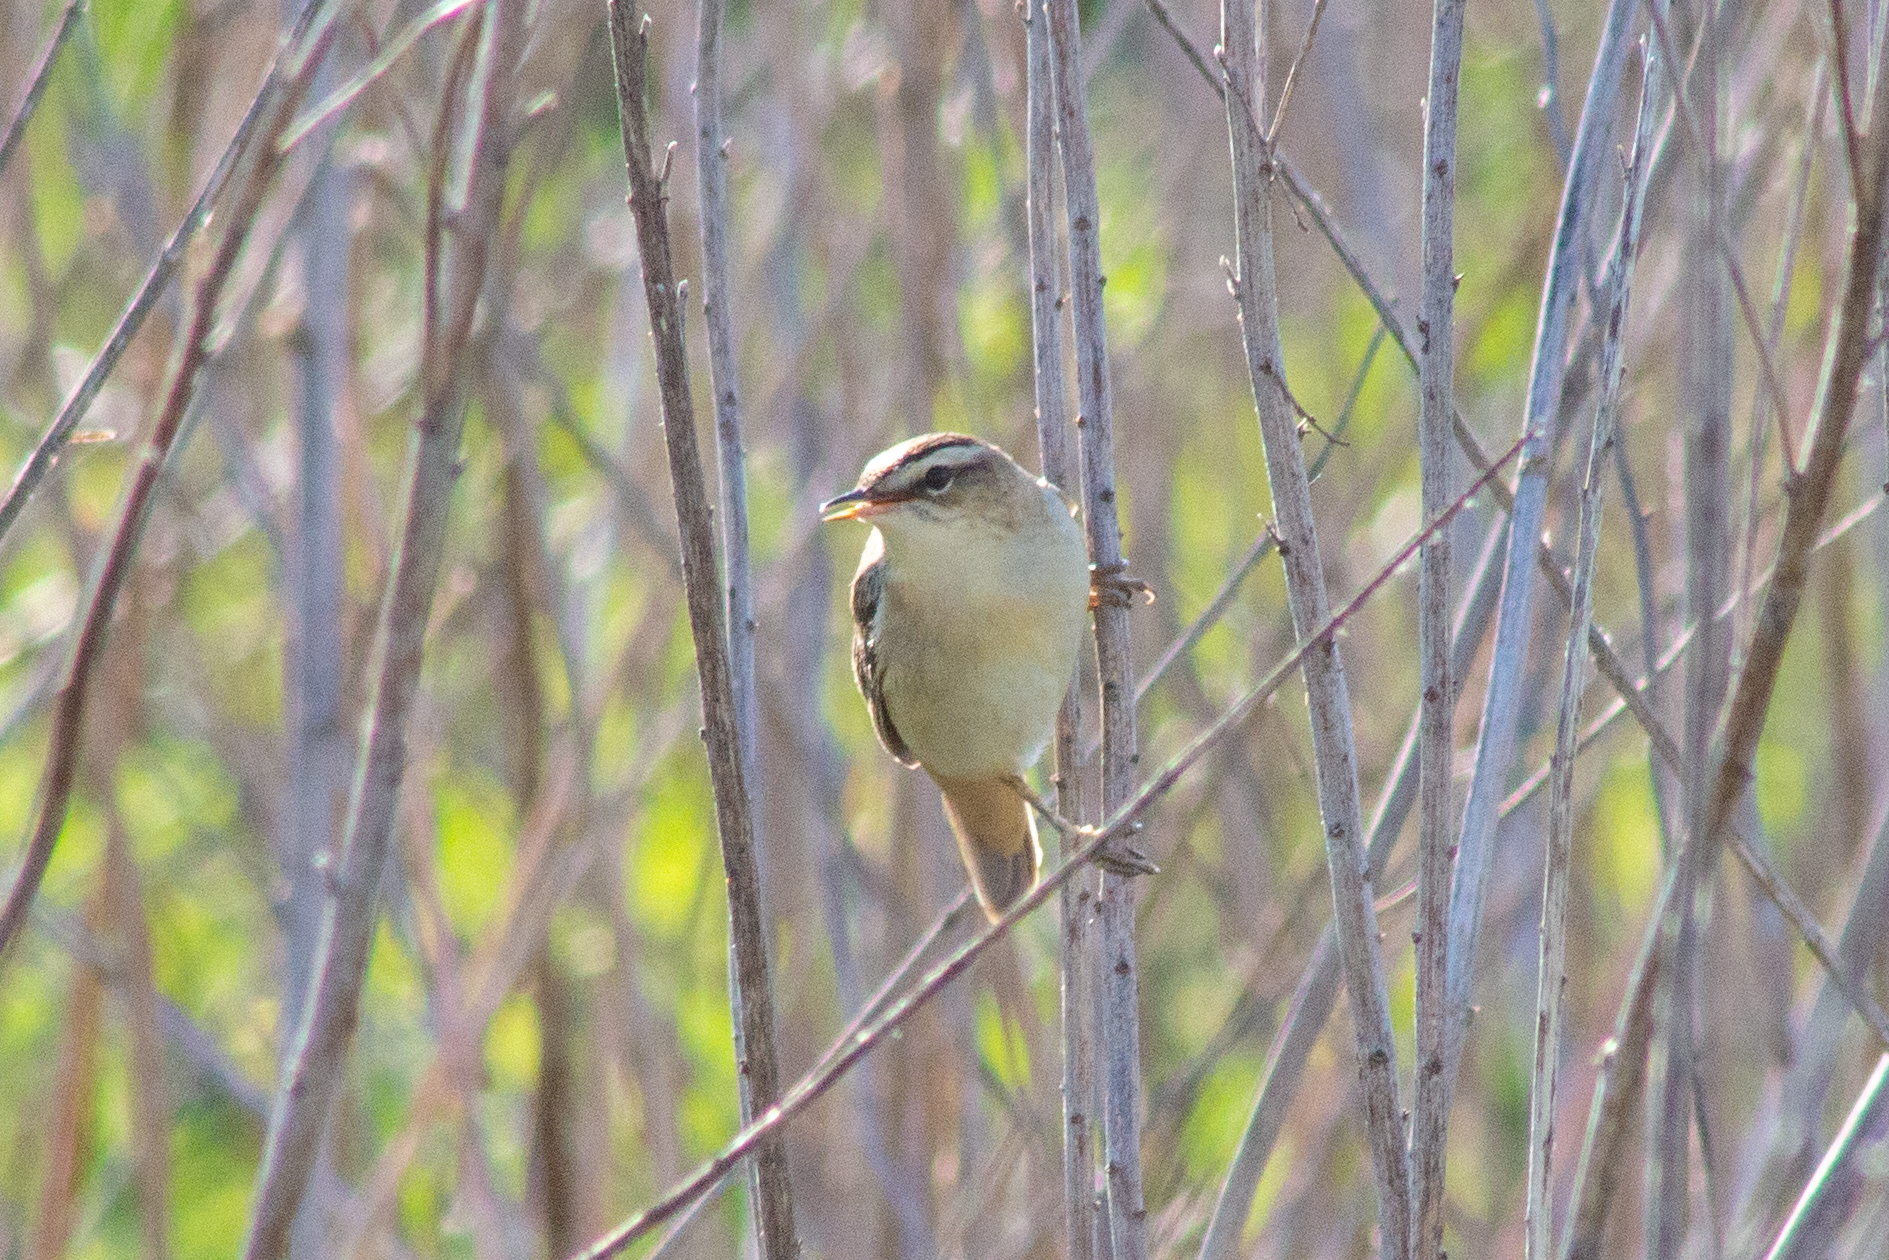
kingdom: Animalia
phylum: Chordata
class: Aves
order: Passeriformes
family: Acrocephalidae
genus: Acrocephalus
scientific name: Acrocephalus schoenobaenus
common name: Sedge warbler
